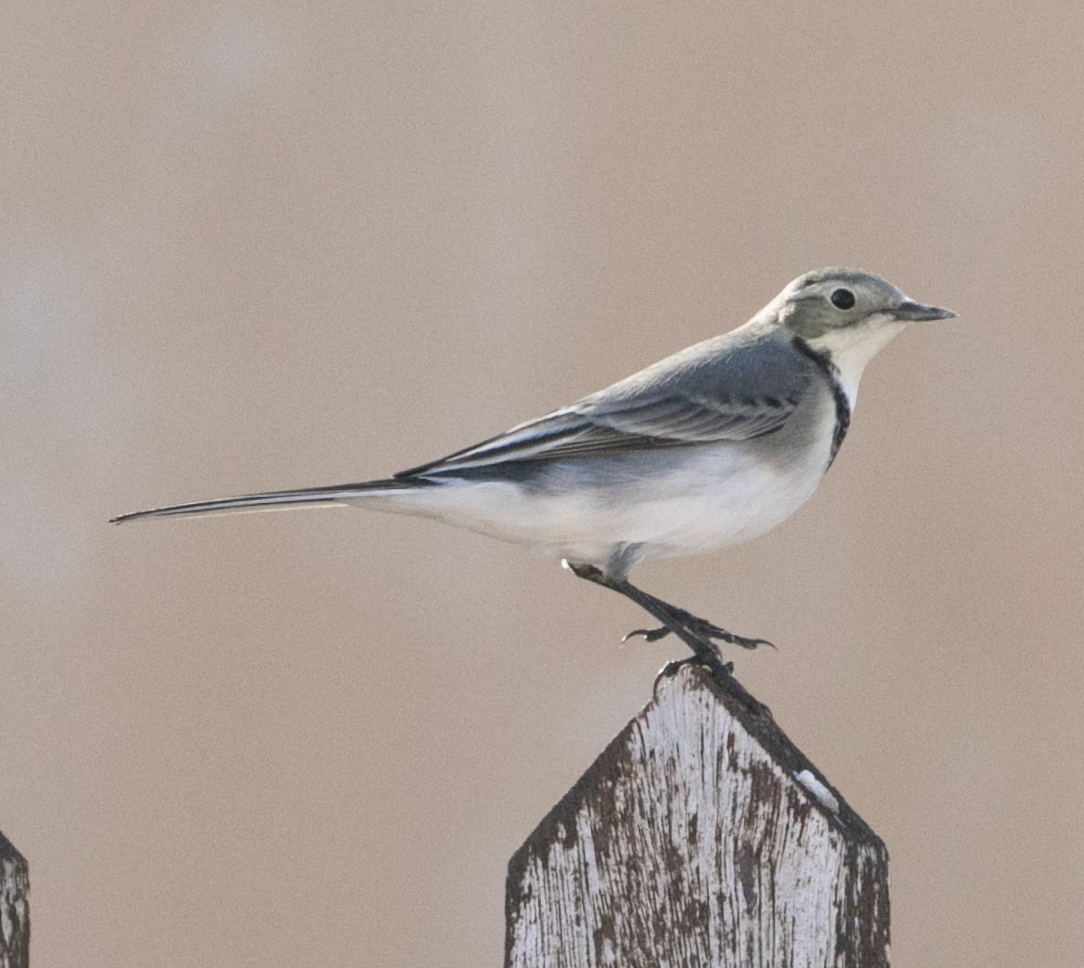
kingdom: Animalia
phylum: Chordata
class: Aves
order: Passeriformes
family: Motacillidae
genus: Motacilla
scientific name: Motacilla alba
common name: White wagtail
